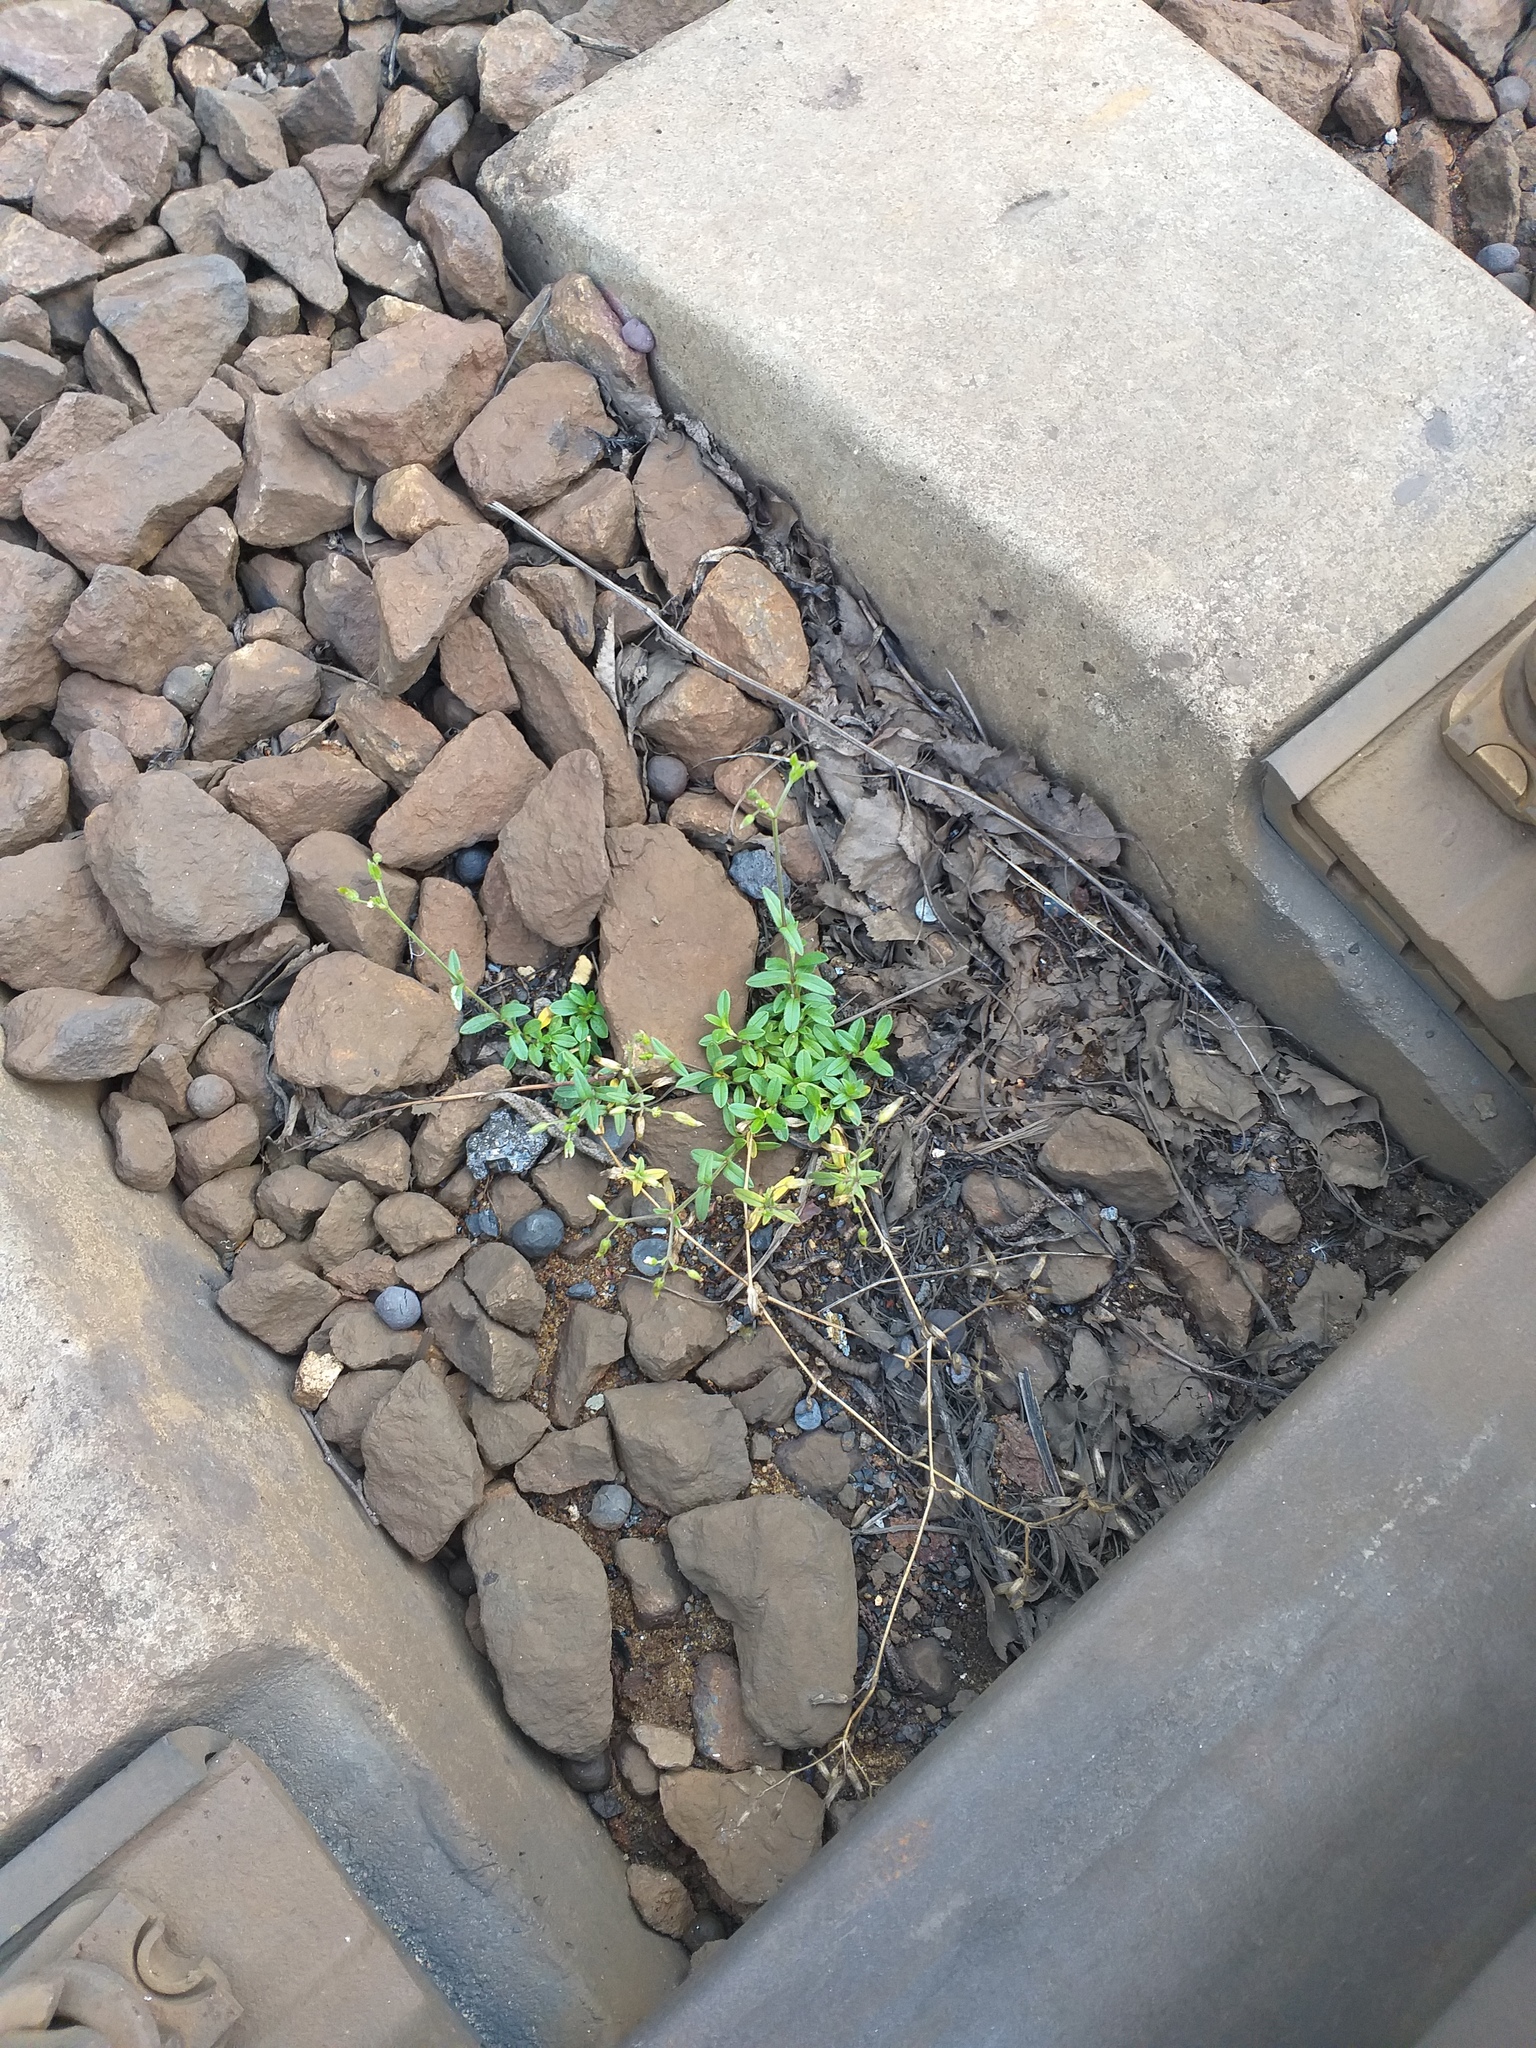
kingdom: Plantae
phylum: Tracheophyta
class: Magnoliopsida
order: Caryophyllales
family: Caryophyllaceae
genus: Cerastium
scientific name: Cerastium holosteoides
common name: Big chickweed
